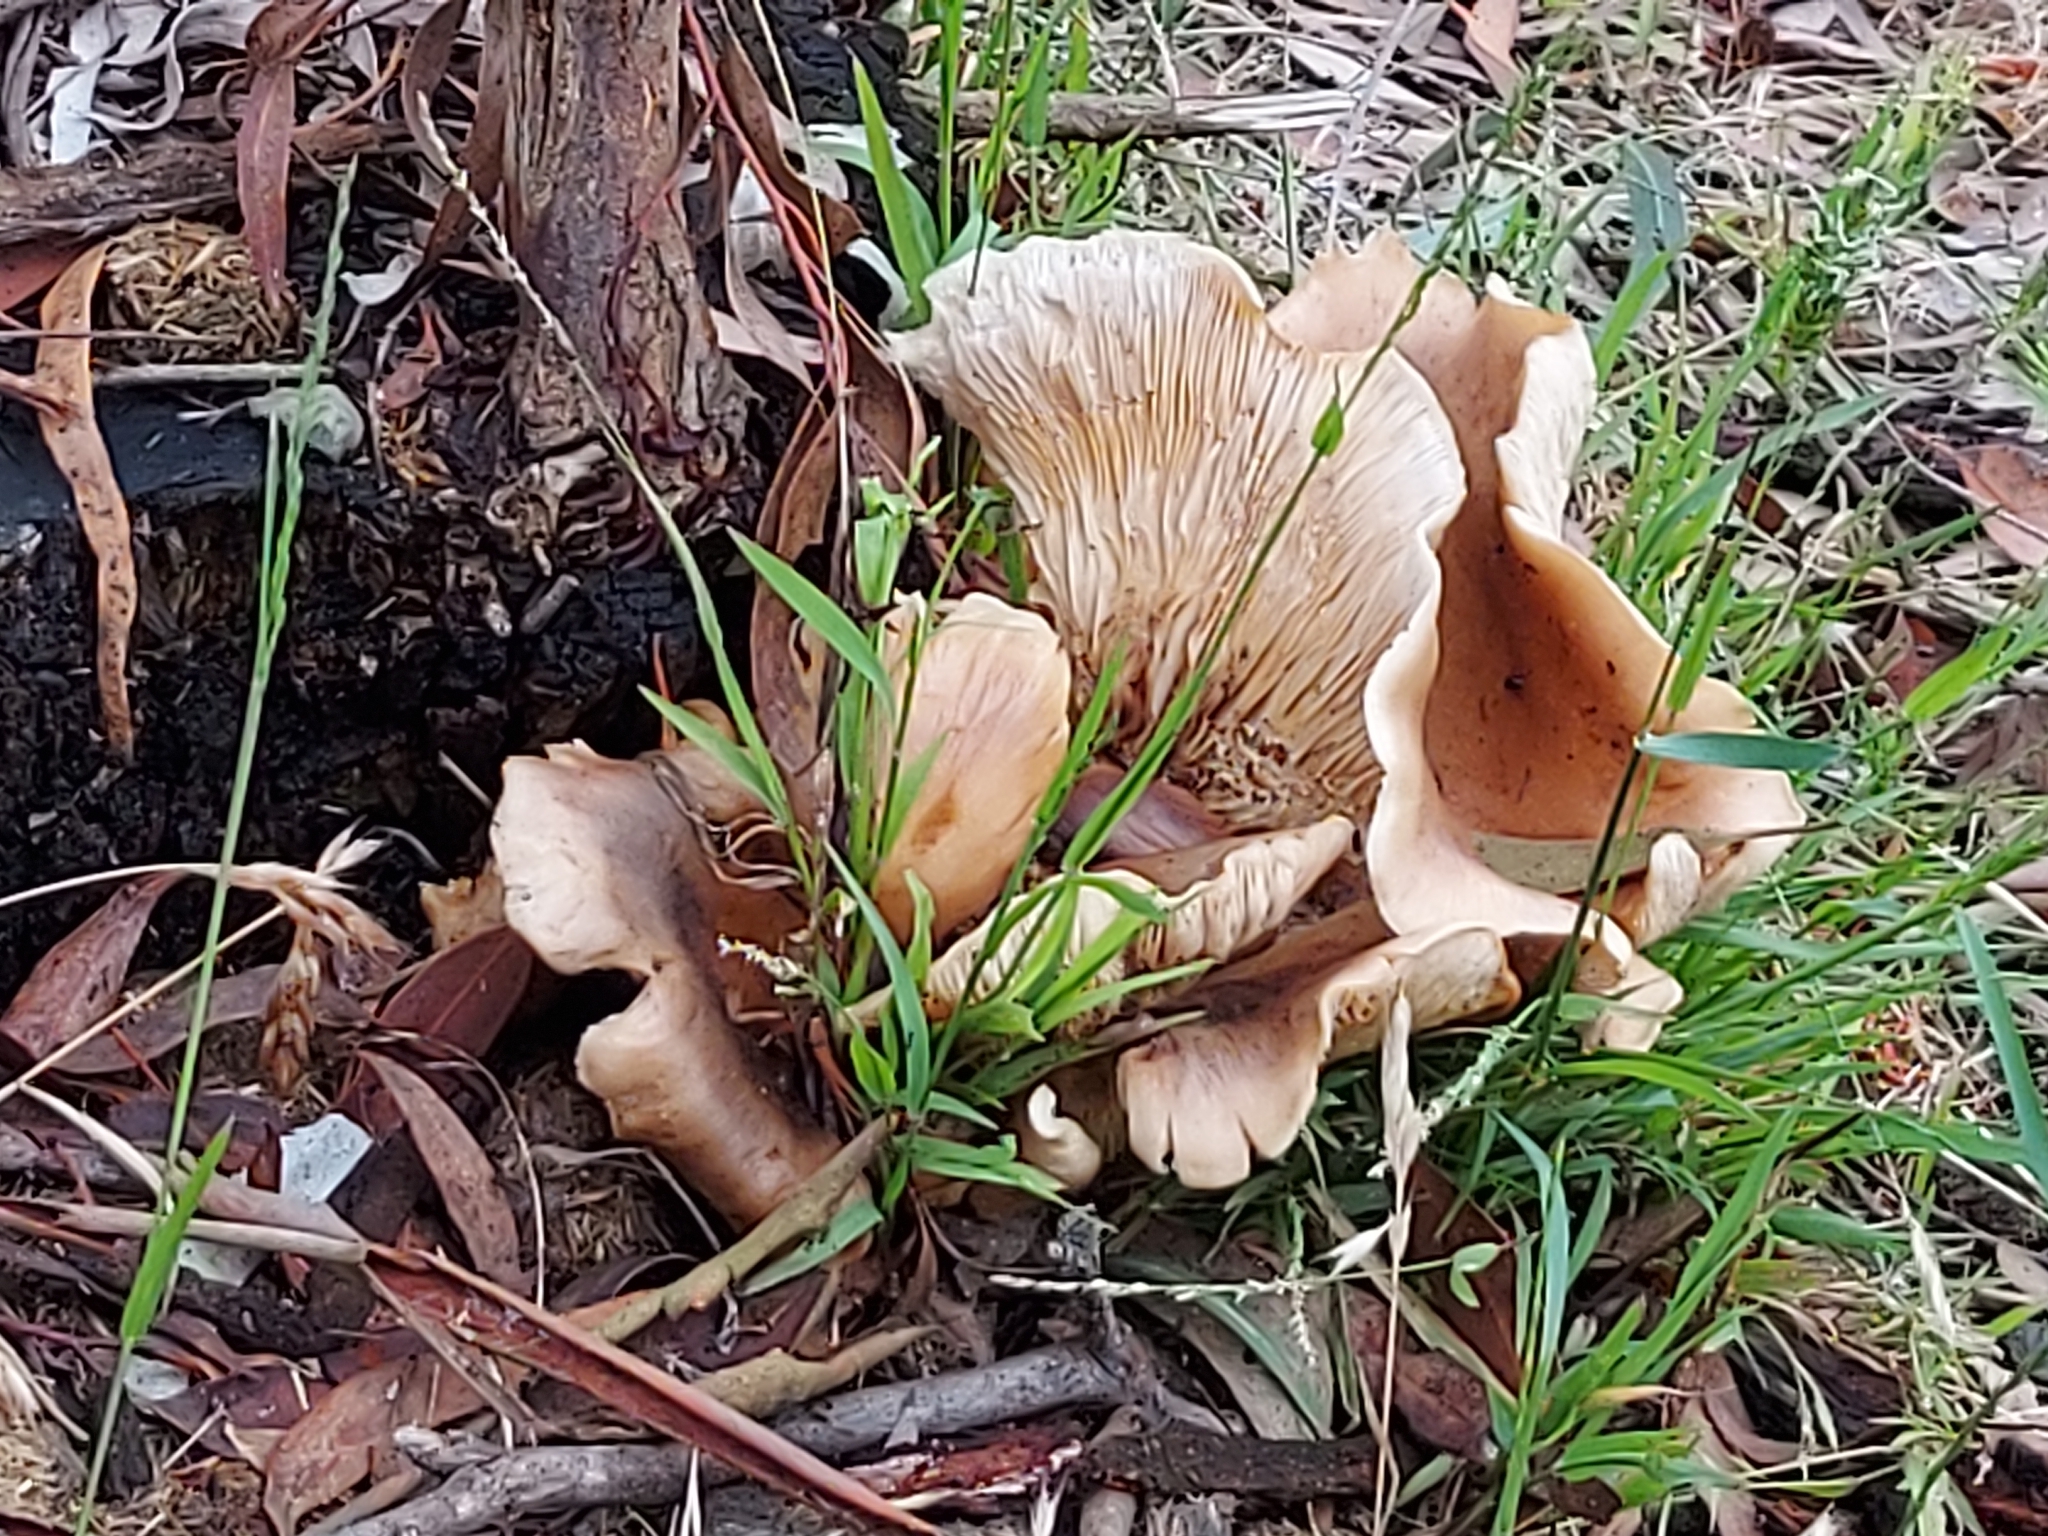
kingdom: Fungi
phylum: Basidiomycota
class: Agaricomycetes
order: Agaricales
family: Omphalotaceae
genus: Omphalotus
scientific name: Omphalotus nidiformis
